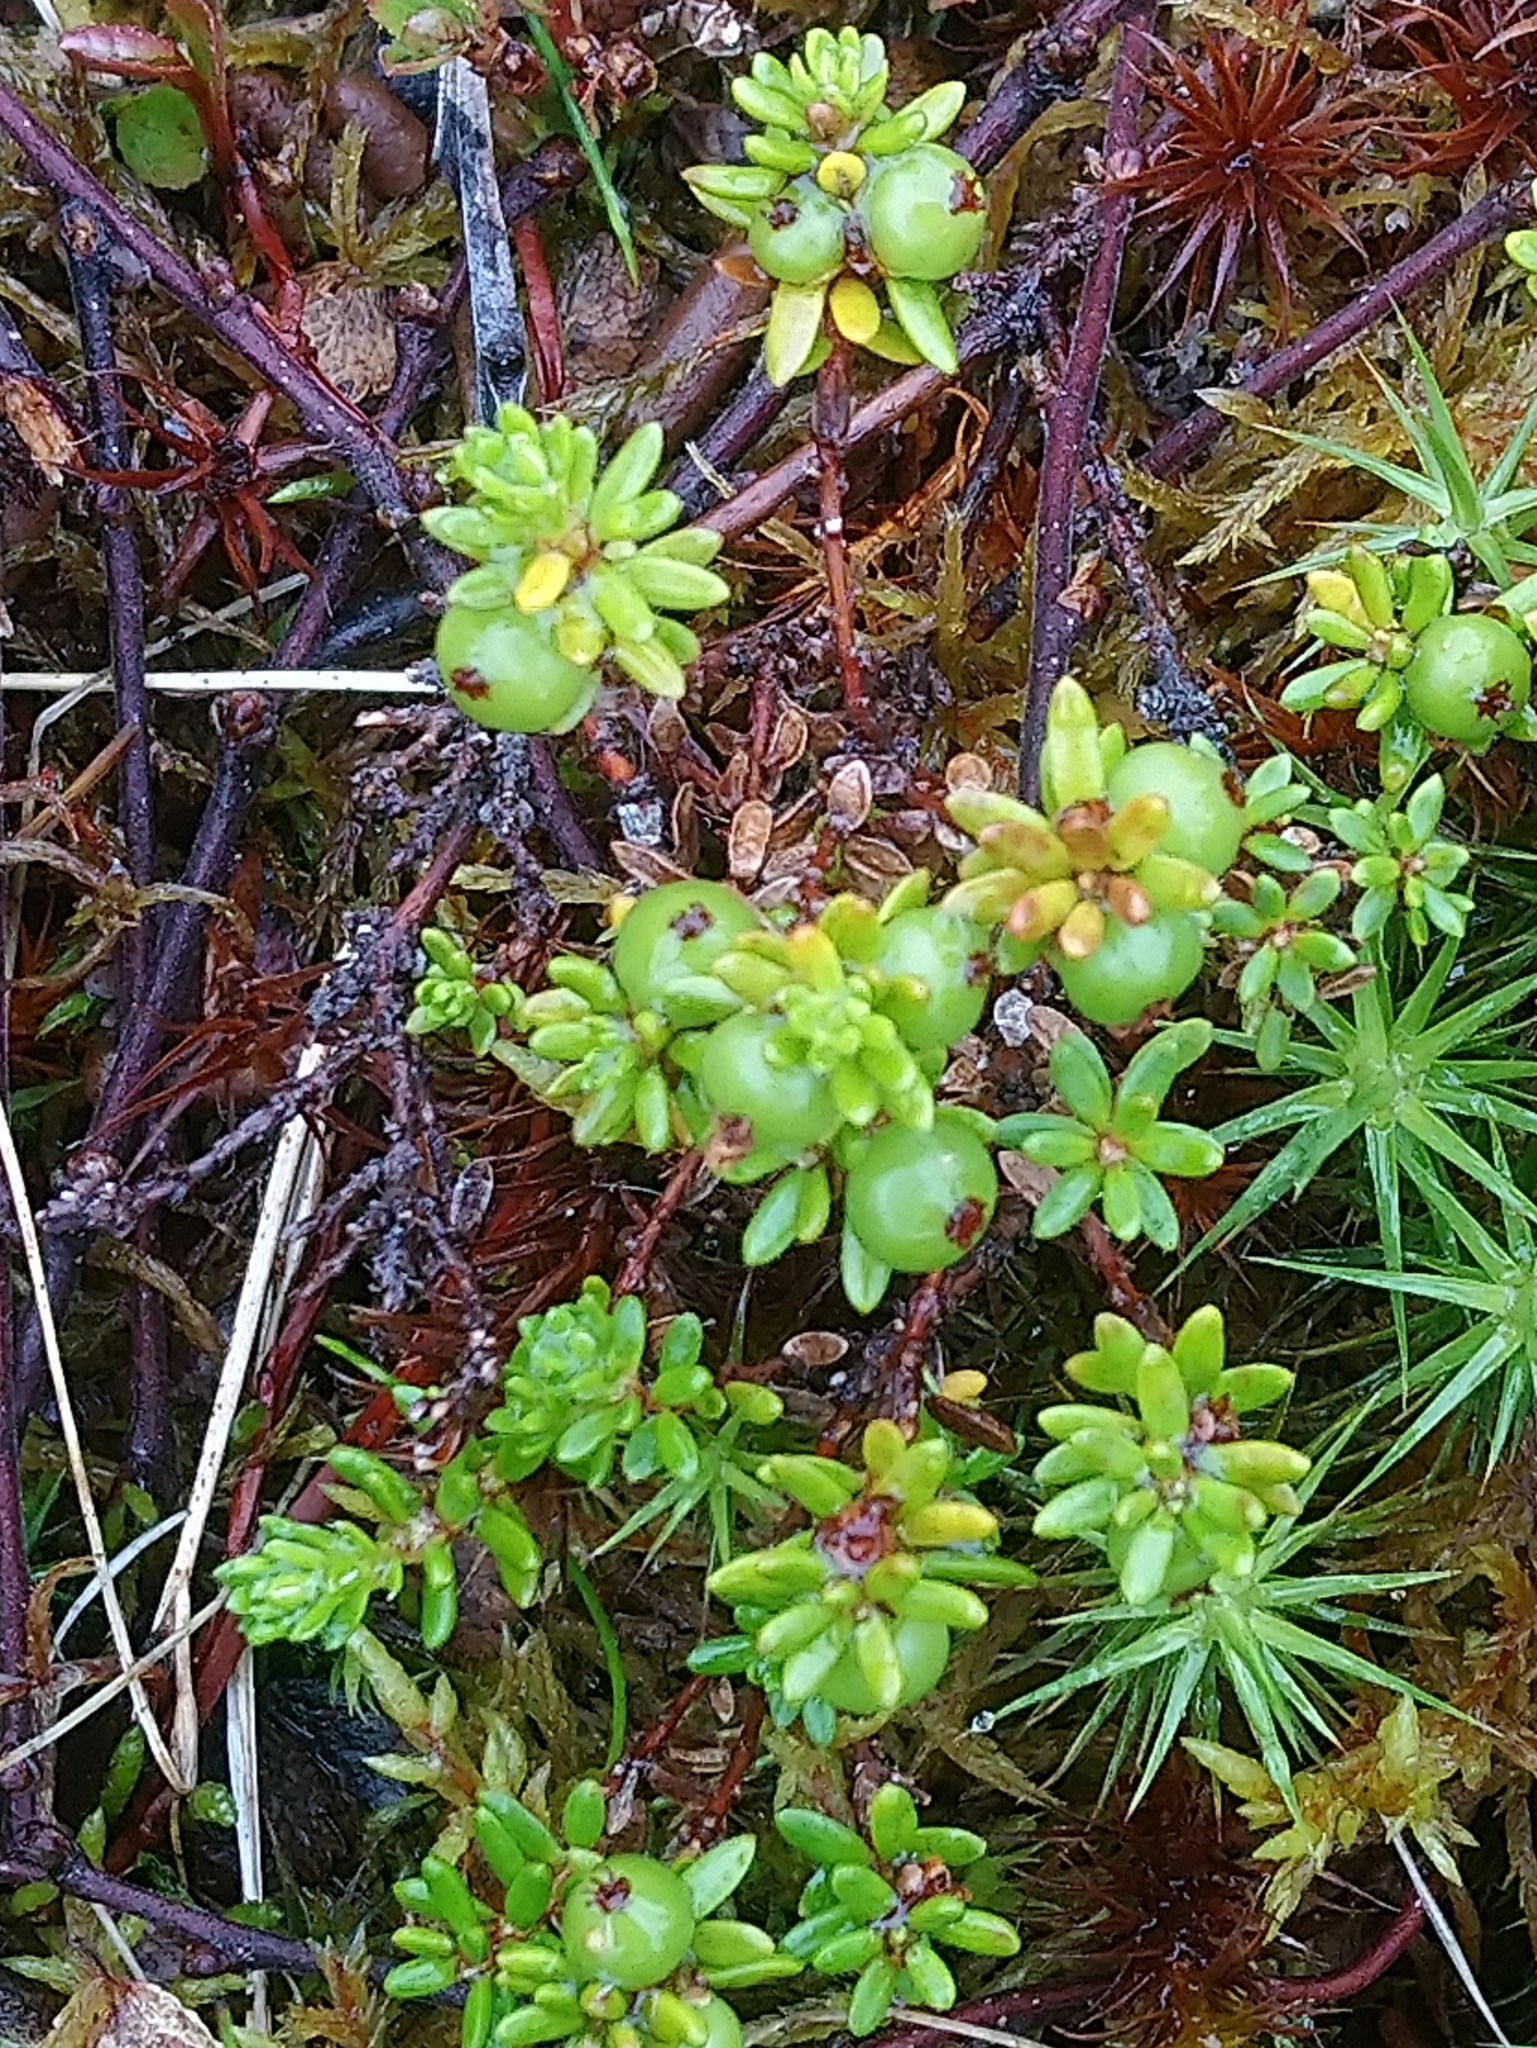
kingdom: Plantae
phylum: Tracheophyta
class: Magnoliopsida
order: Ericales
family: Ericaceae
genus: Empetrum
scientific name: Empetrum nigrum
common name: Black crowberry
